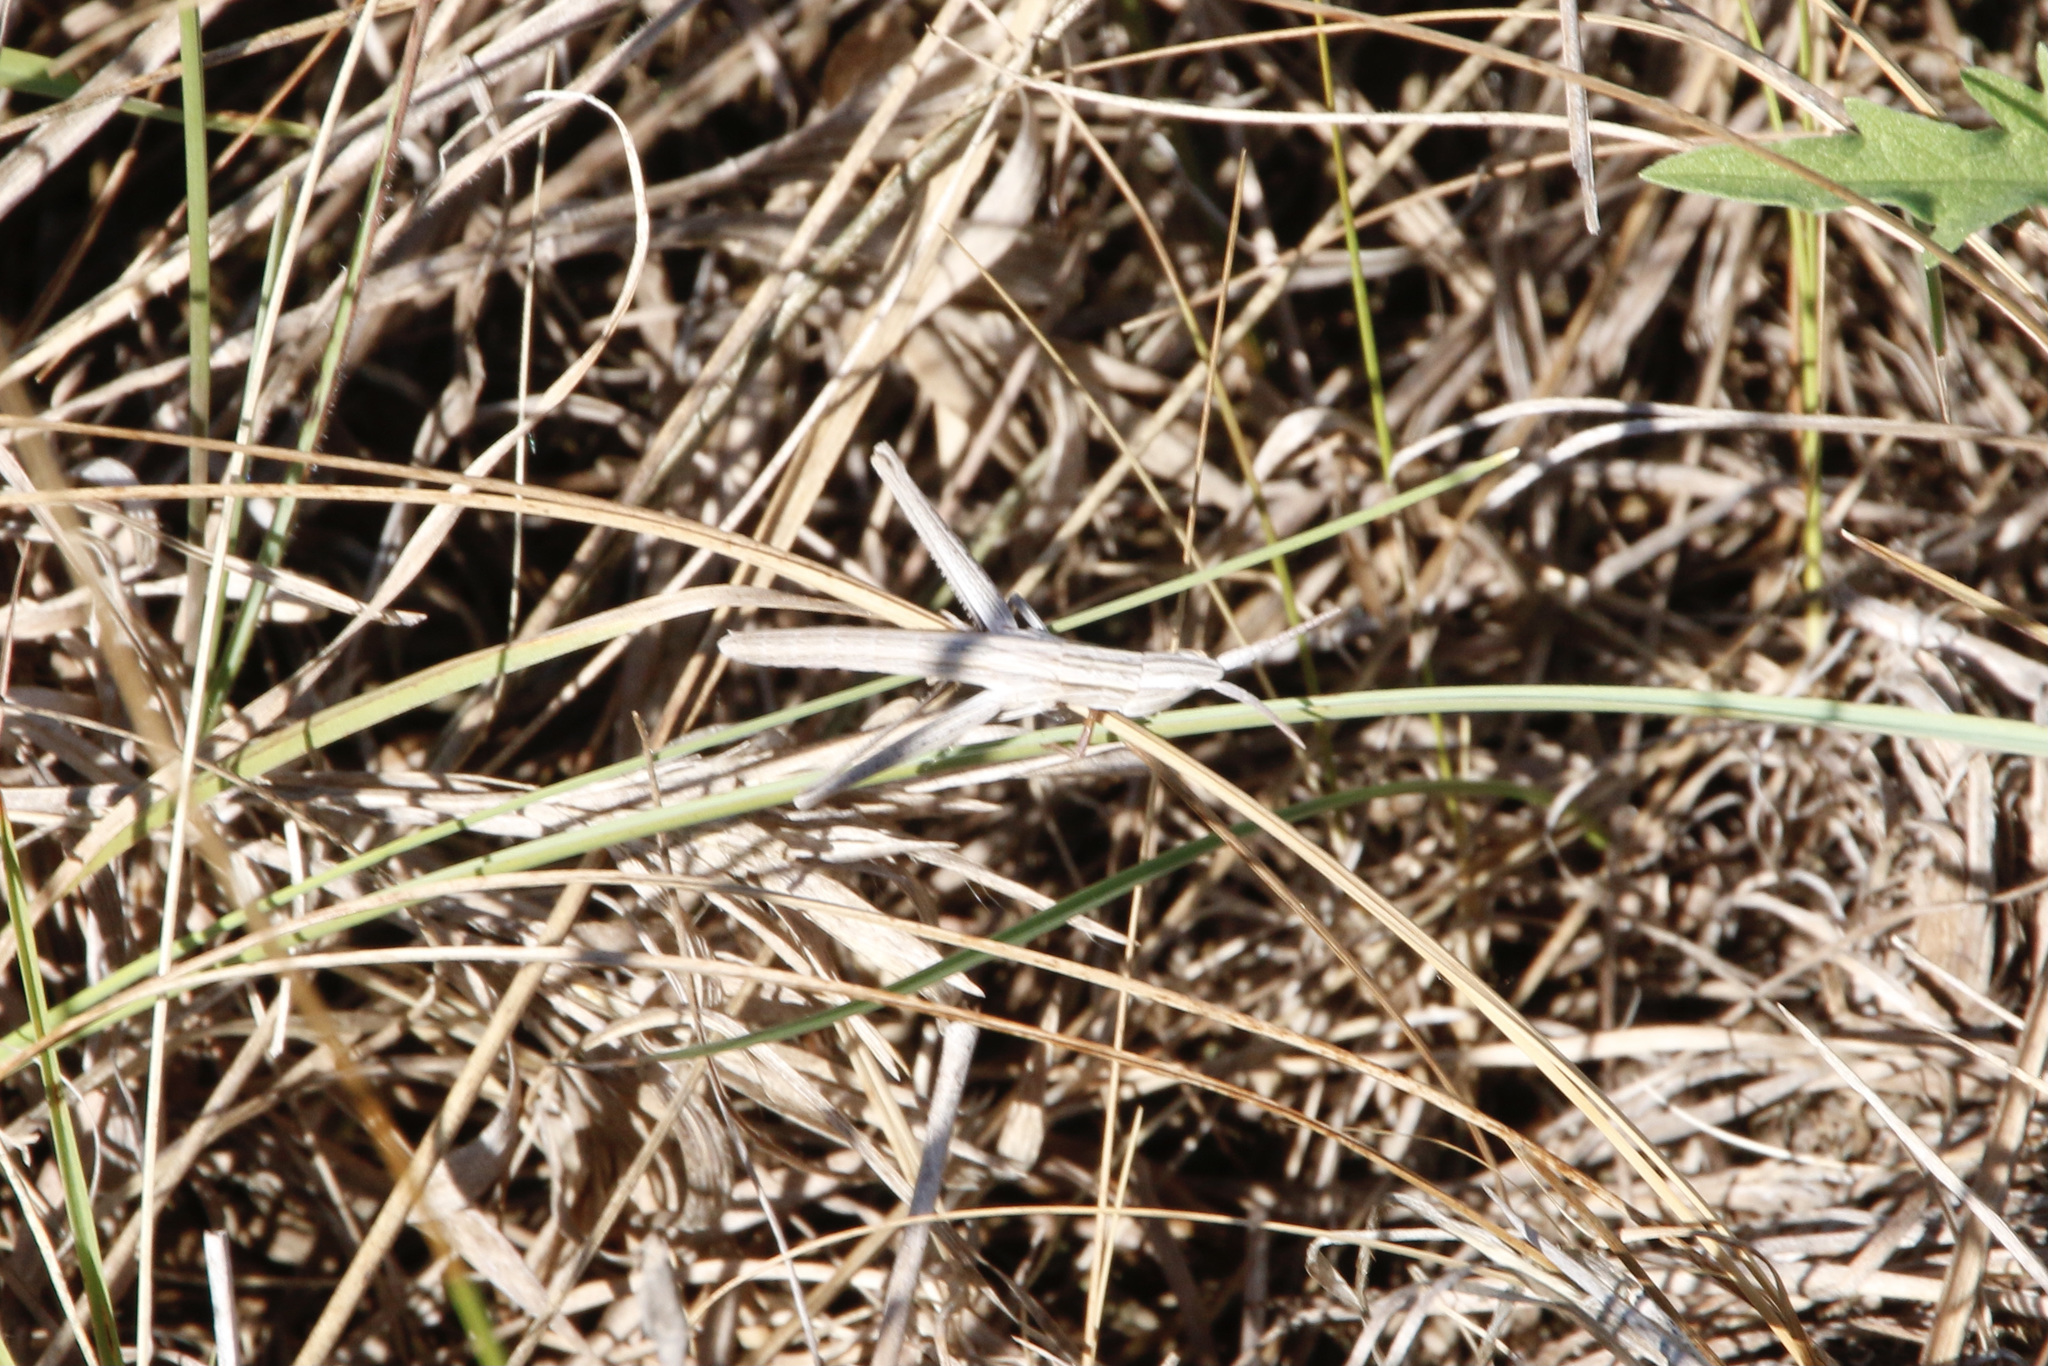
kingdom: Animalia
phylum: Arthropoda
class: Insecta
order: Orthoptera
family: Acrididae
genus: Pseudopomala
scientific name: Pseudopomala brachyptera
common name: Bunchgrass grasshopper
